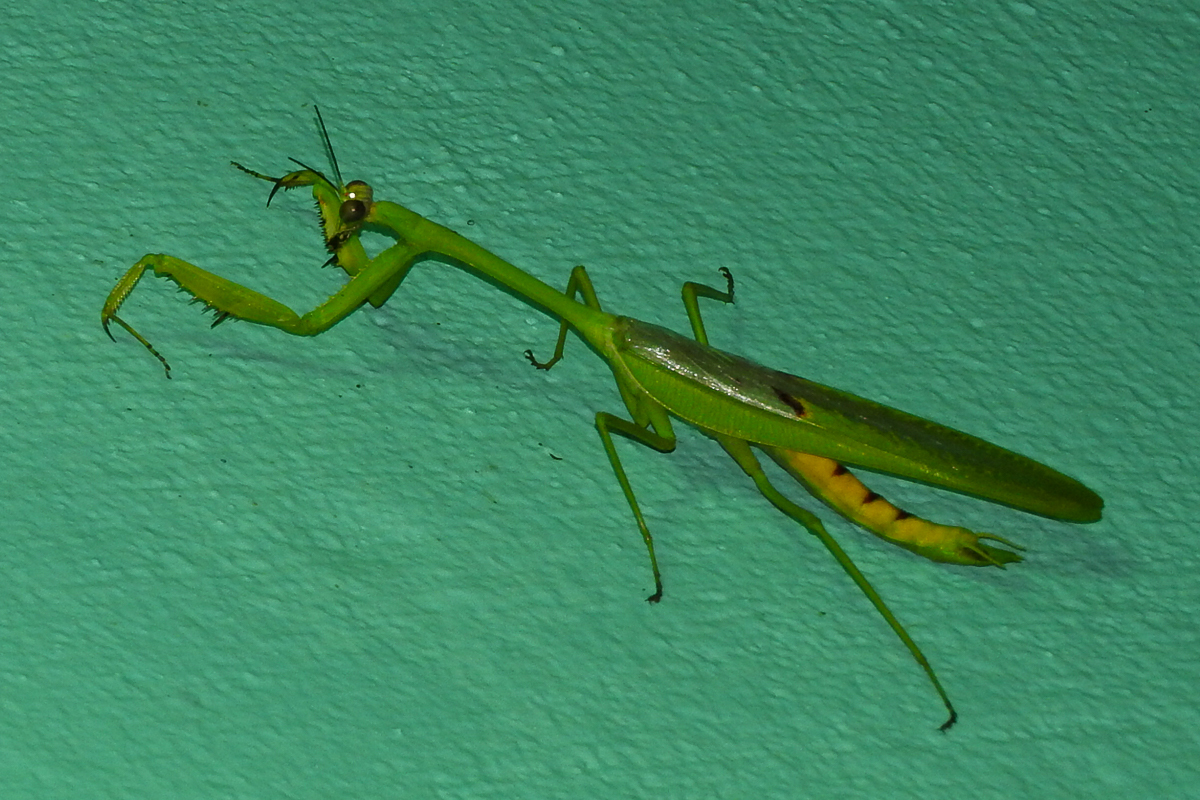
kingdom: Animalia
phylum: Arthropoda
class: Insecta
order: Mantodea
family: Mantidae
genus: Stagmatoptera
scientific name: Stagmatoptera septentrionalis
